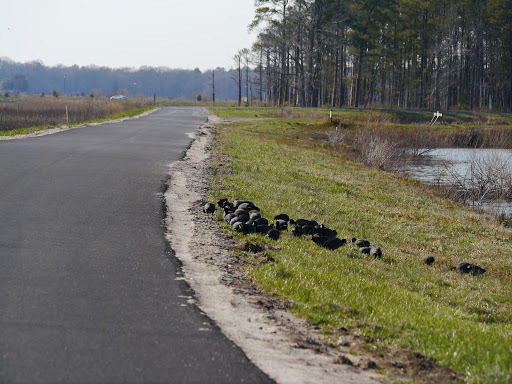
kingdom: Animalia
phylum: Chordata
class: Aves
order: Gruiformes
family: Rallidae
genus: Fulica
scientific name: Fulica americana
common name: American coot
